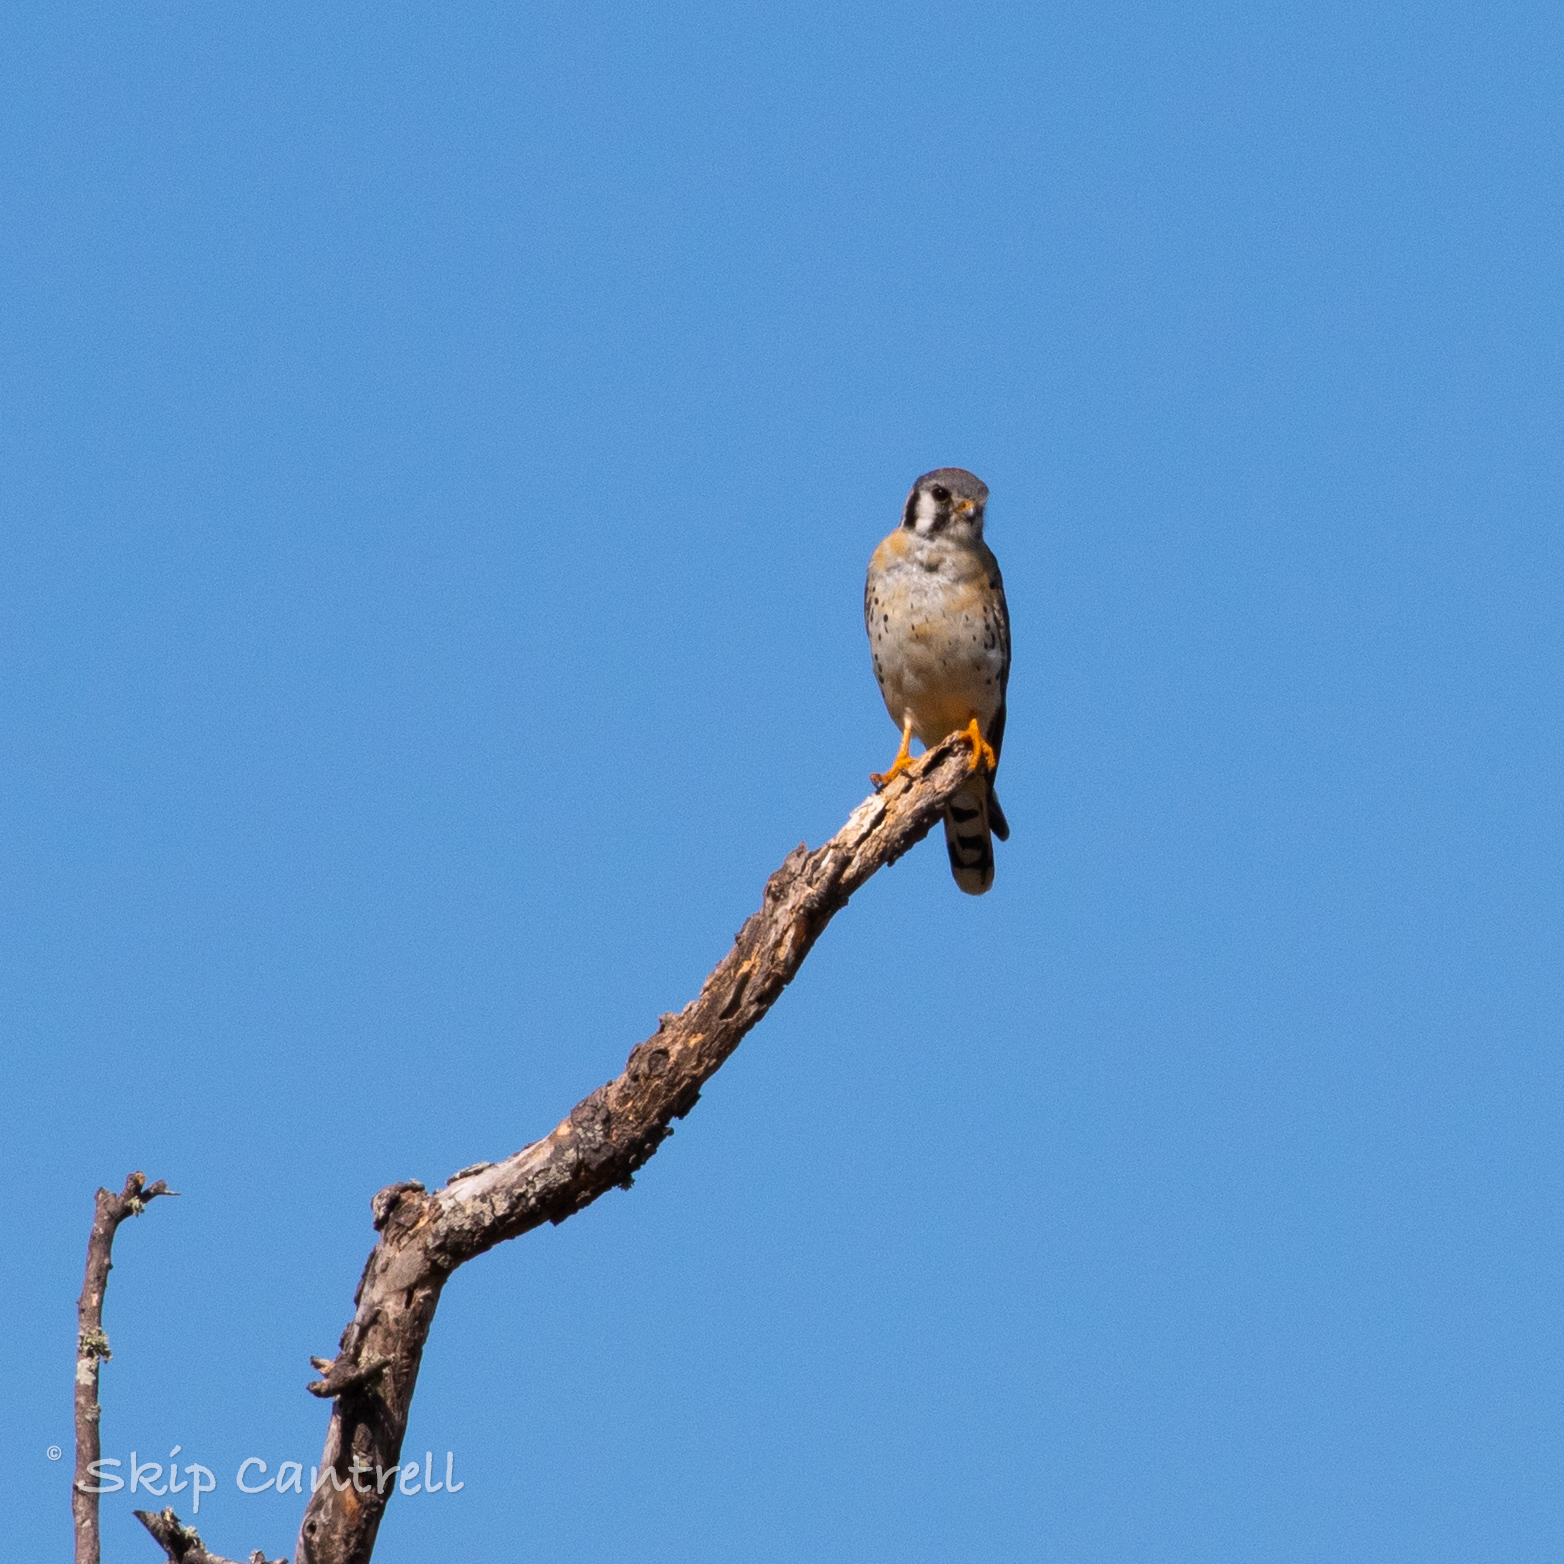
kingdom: Animalia
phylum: Chordata
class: Aves
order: Falconiformes
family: Falconidae
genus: Falco
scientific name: Falco sparverius
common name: American kestrel
